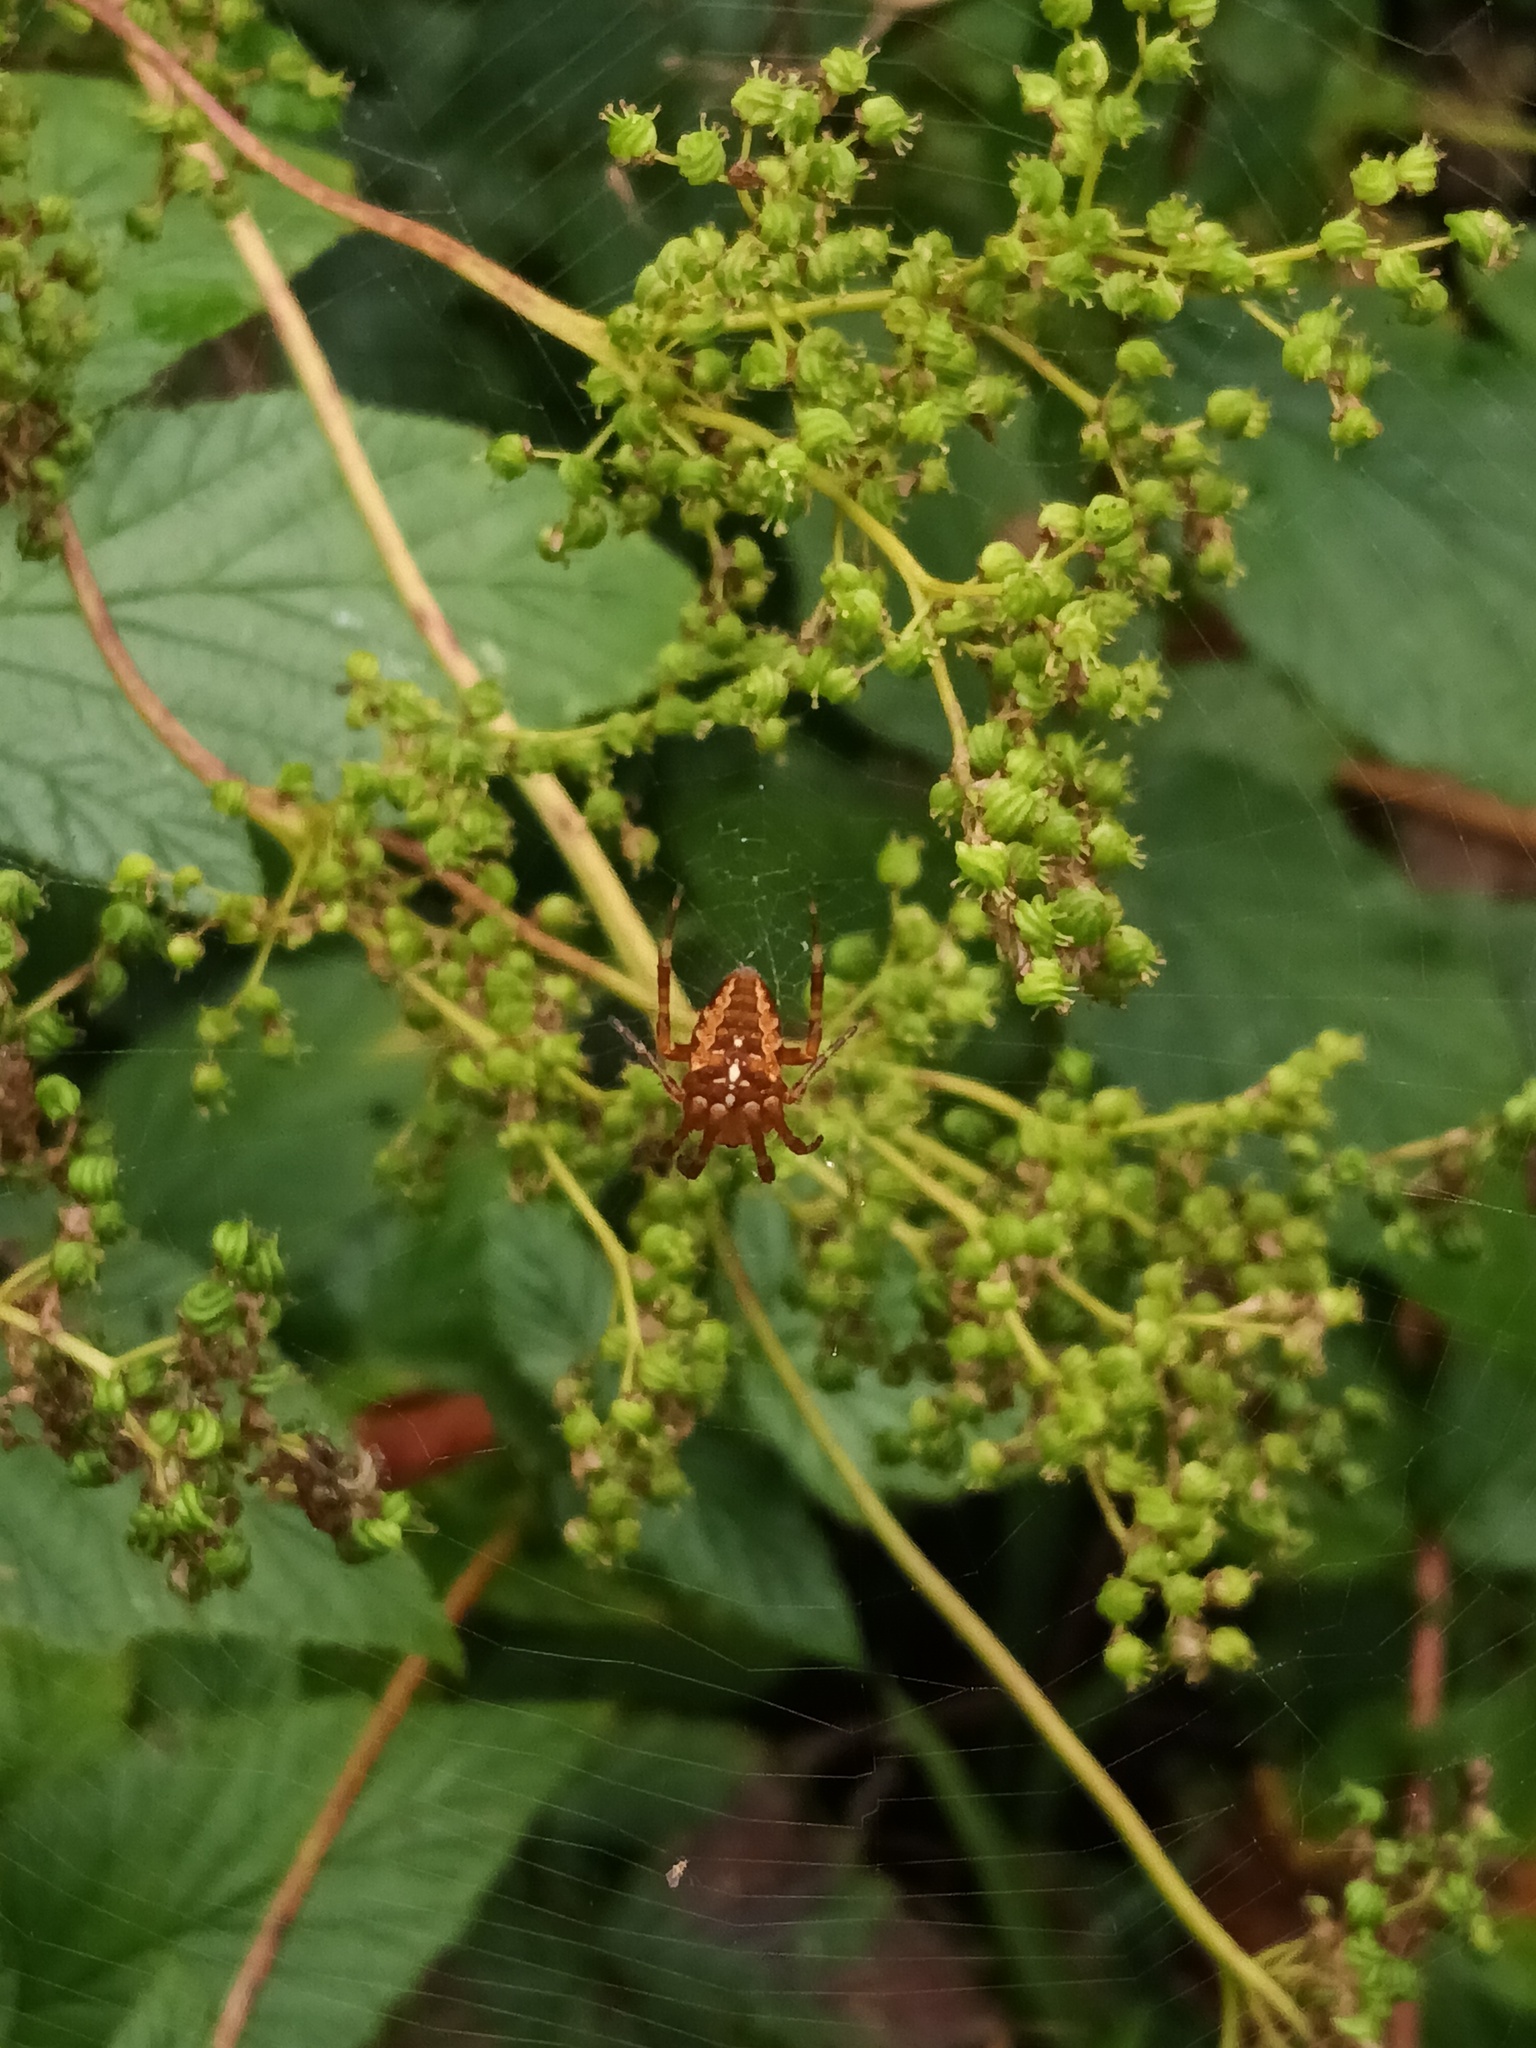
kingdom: Animalia
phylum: Arthropoda
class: Arachnida
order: Araneae
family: Araneidae
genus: Araneus
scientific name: Araneus diadematus
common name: Cross orbweaver
